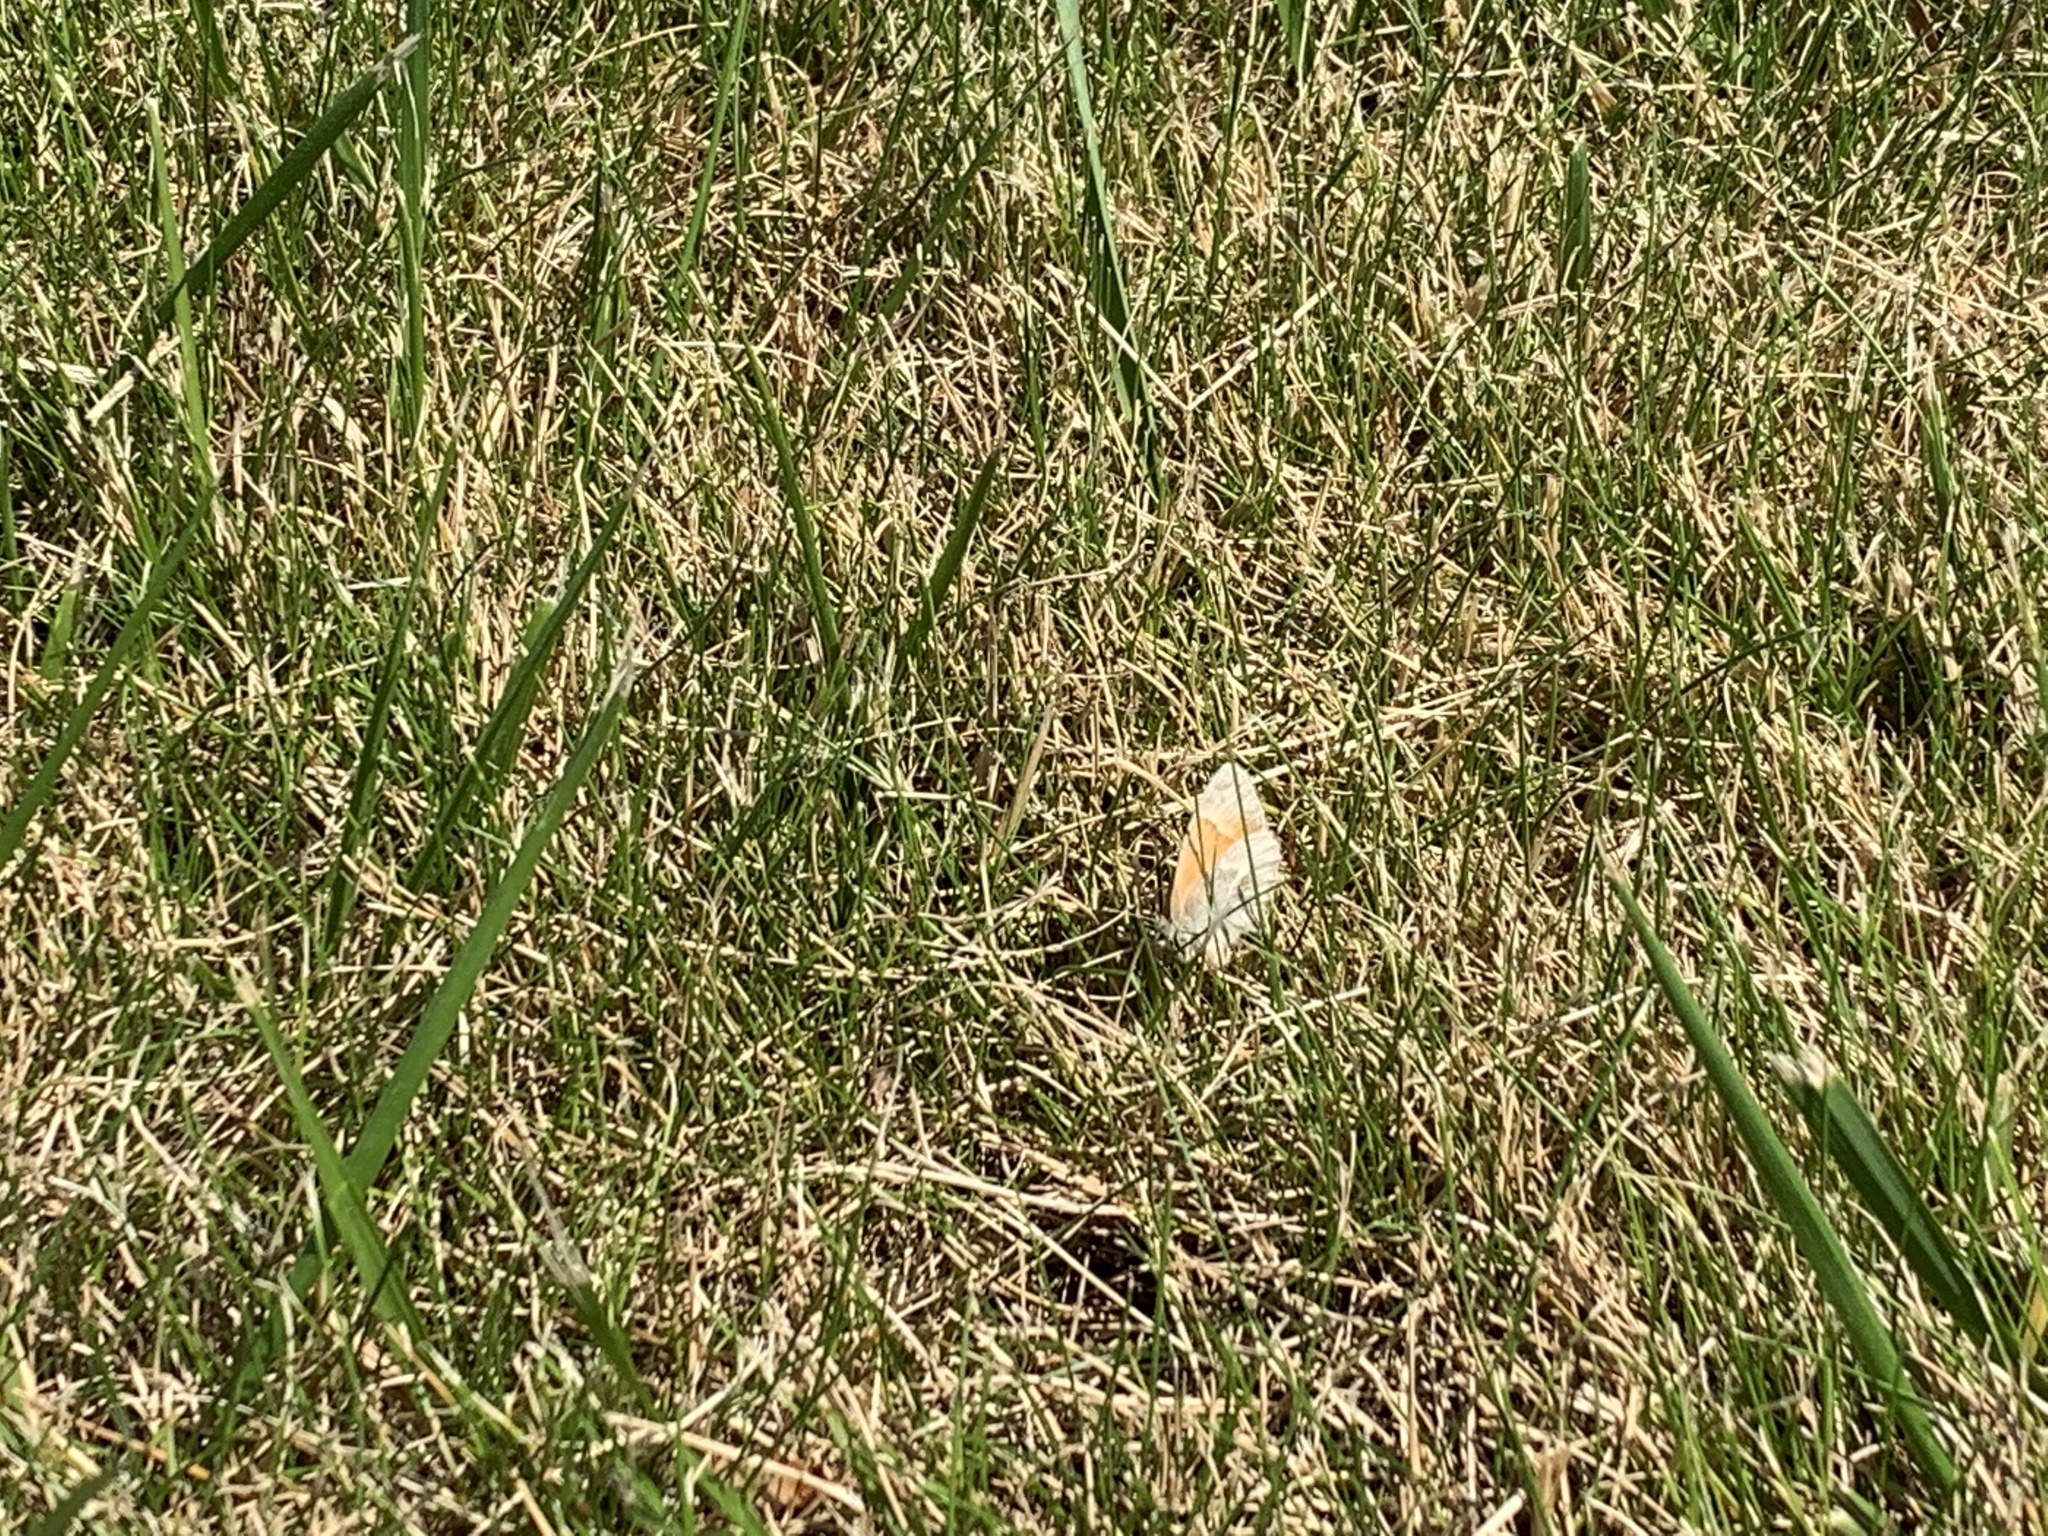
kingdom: Animalia
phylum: Arthropoda
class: Insecta
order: Lepidoptera
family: Nymphalidae
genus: Coenonympha
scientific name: Coenonympha california
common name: Common ringlet
